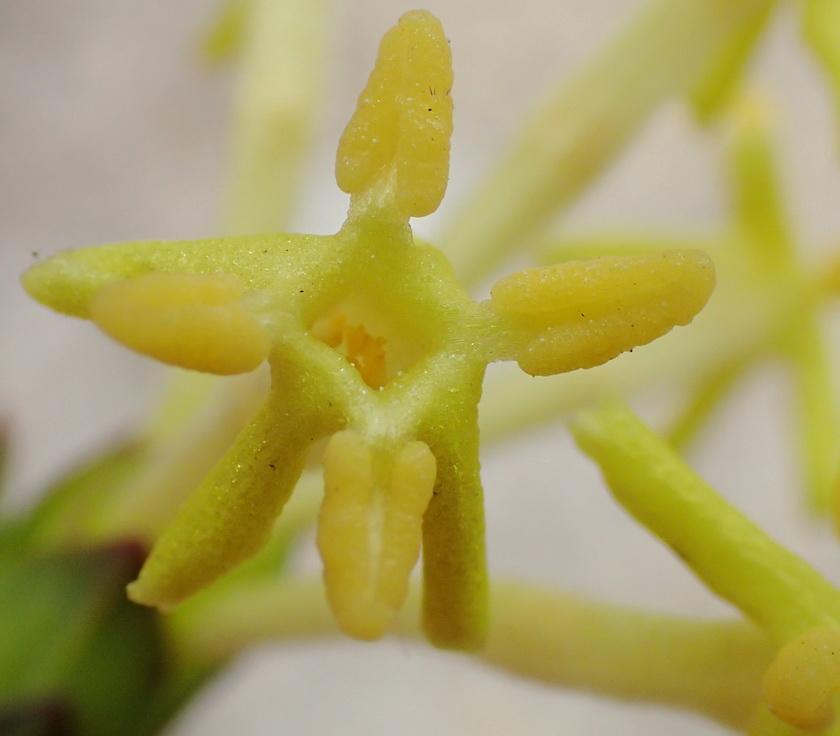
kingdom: Plantae
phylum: Tracheophyta
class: Magnoliopsida
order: Malvales
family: Thymelaeaceae
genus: Gnidia
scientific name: Gnidia oppositifolia
